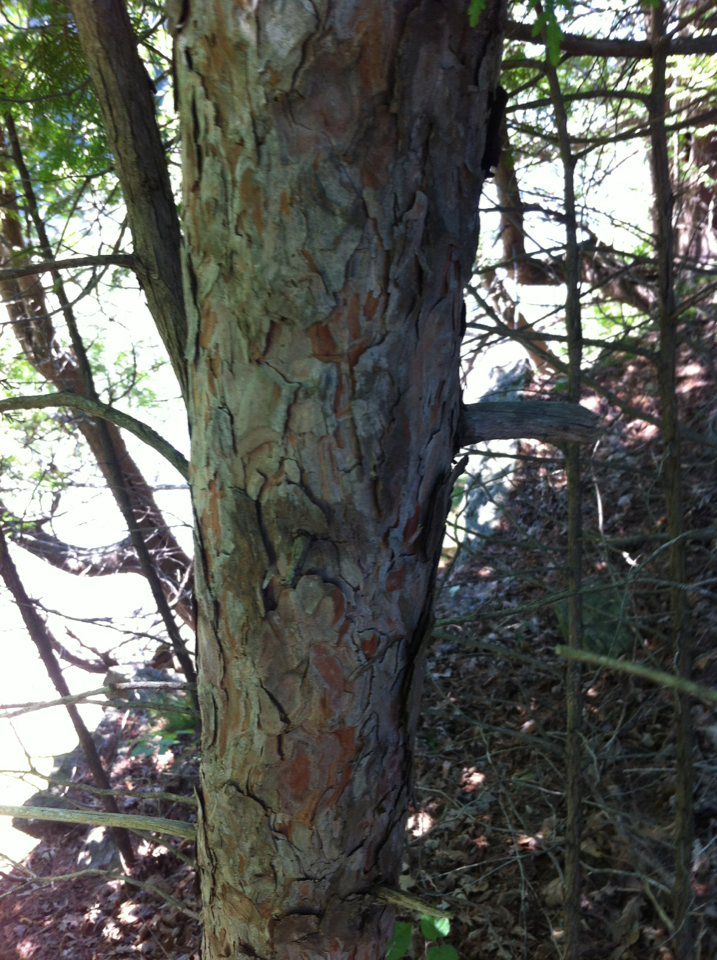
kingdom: Plantae
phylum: Tracheophyta
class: Pinopsida
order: Pinales
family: Pinaceae
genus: Pinus
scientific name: Pinus resinosa
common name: Norway pine
